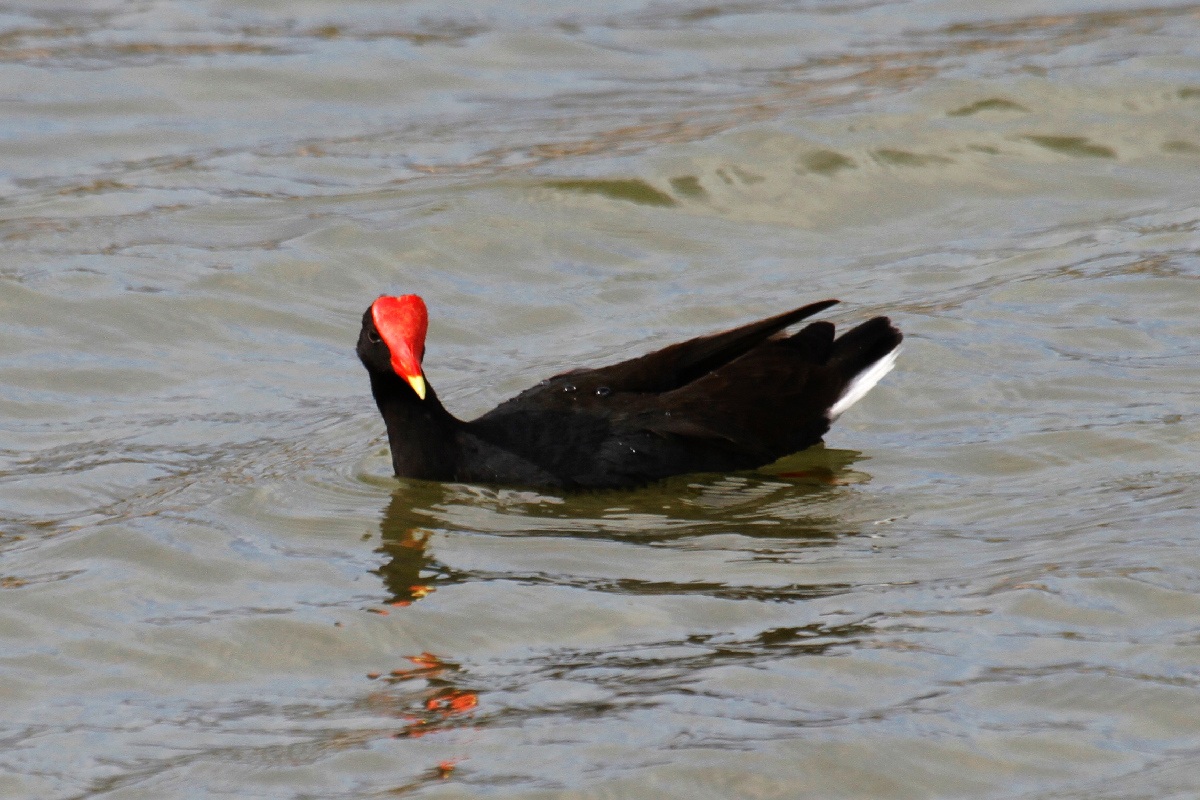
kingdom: Animalia
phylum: Chordata
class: Aves
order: Gruiformes
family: Rallidae
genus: Gallinula
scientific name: Gallinula chloropus
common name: Common moorhen
